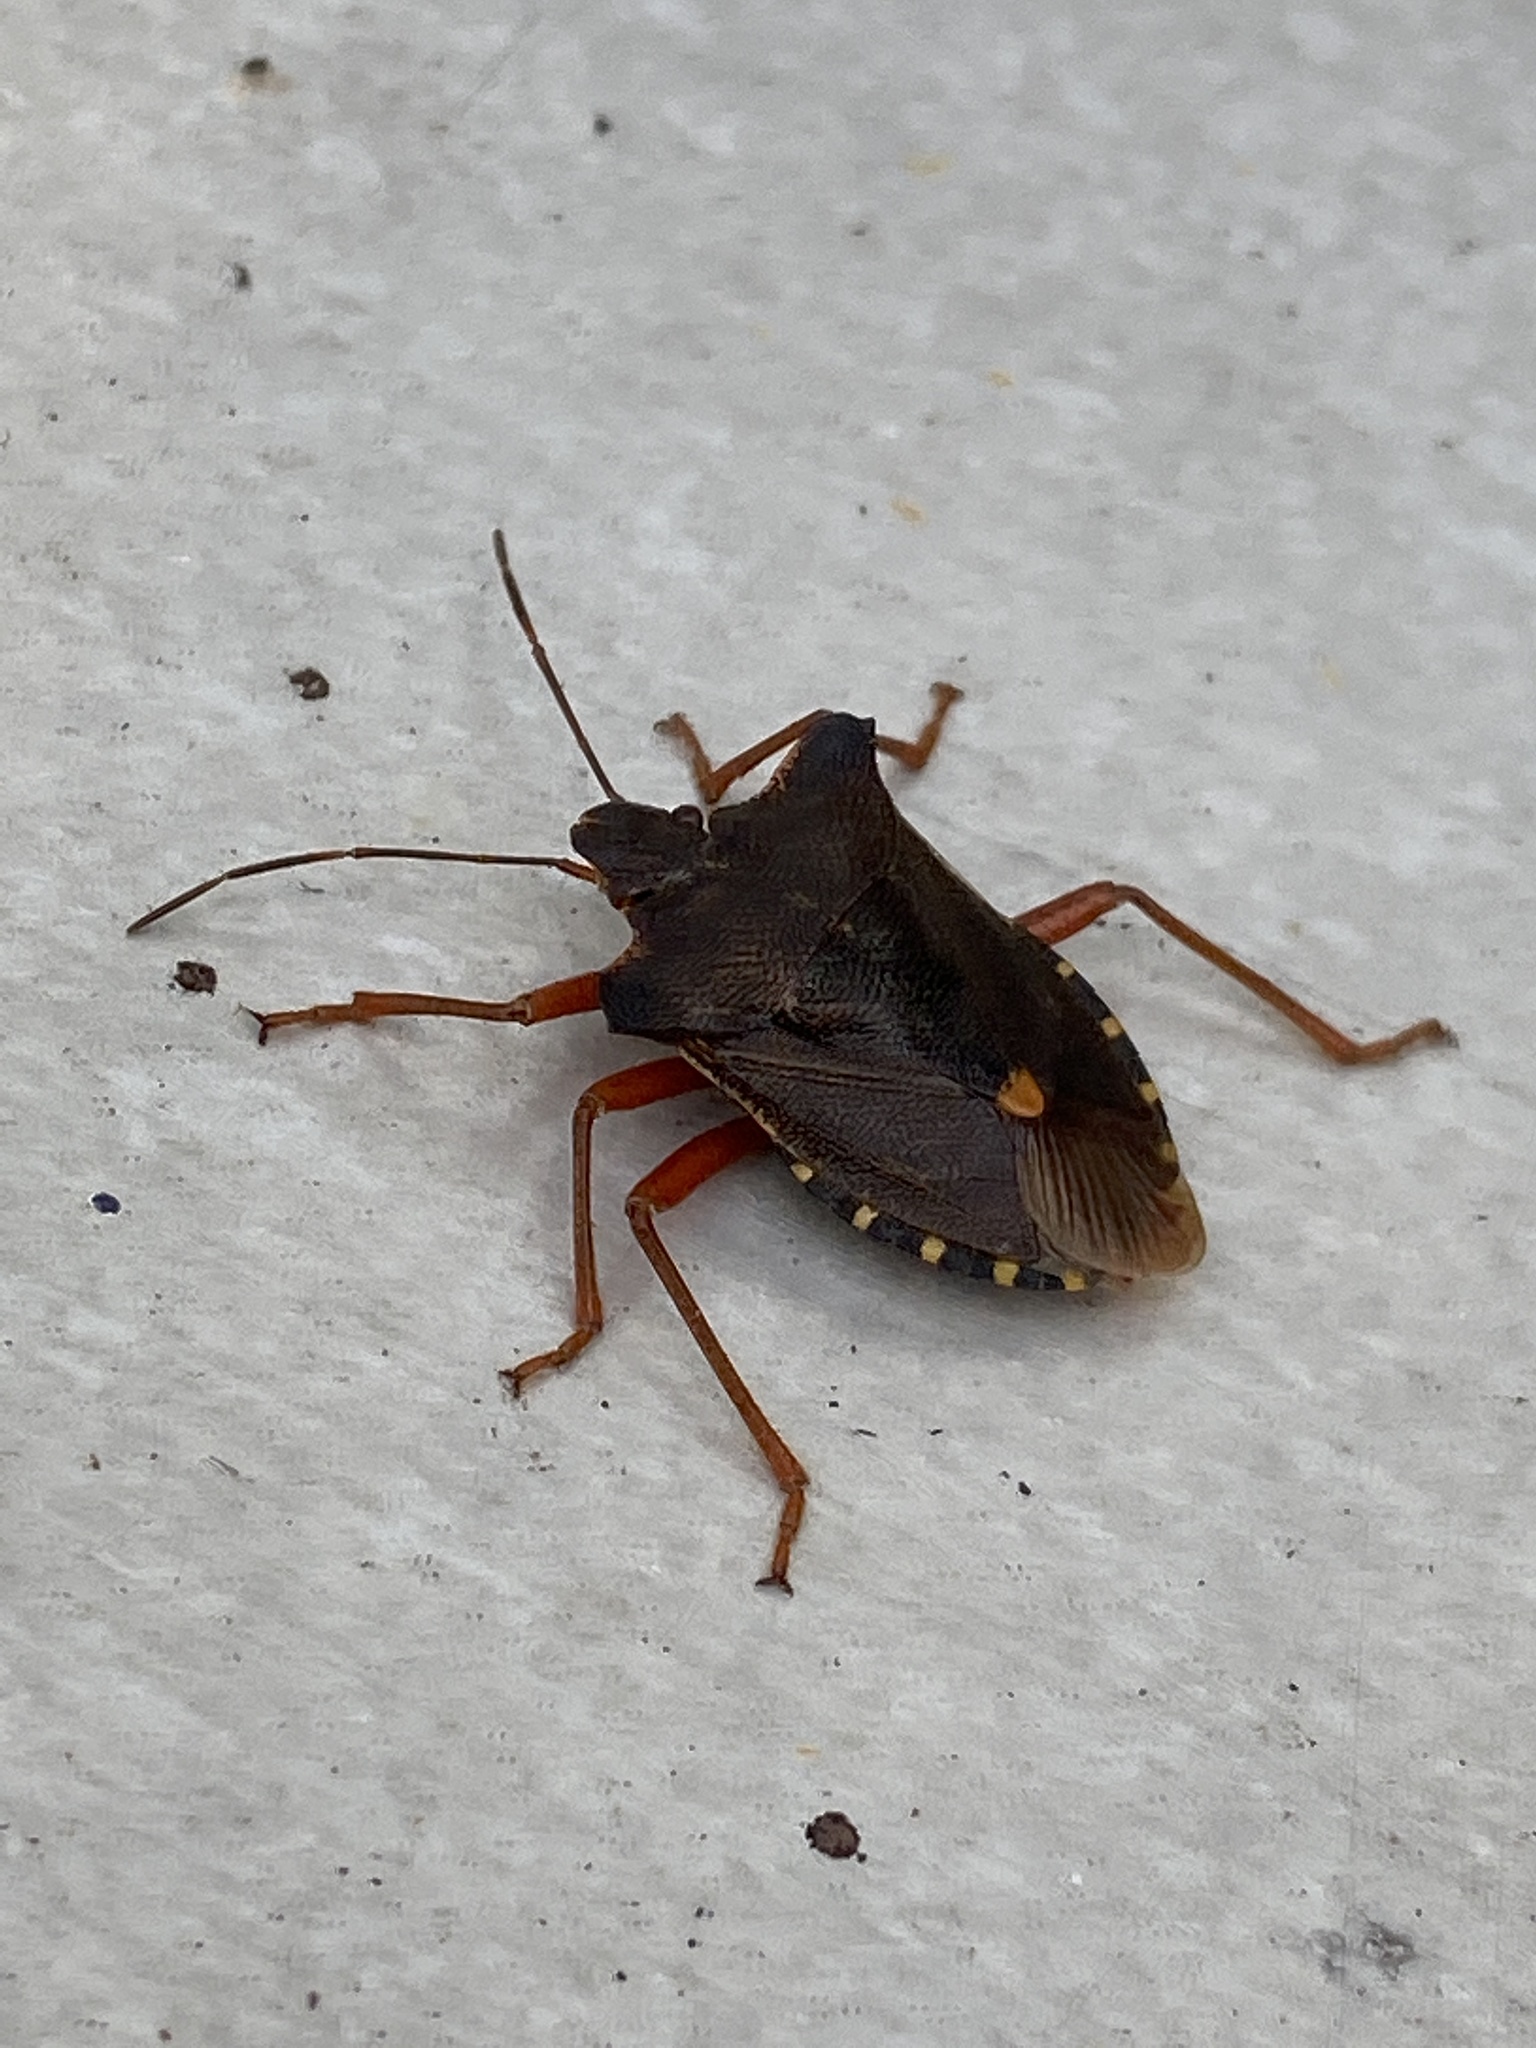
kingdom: Animalia
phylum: Arthropoda
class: Insecta
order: Hemiptera
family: Pentatomidae
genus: Pentatoma
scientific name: Pentatoma rufipes
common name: Forest bug
